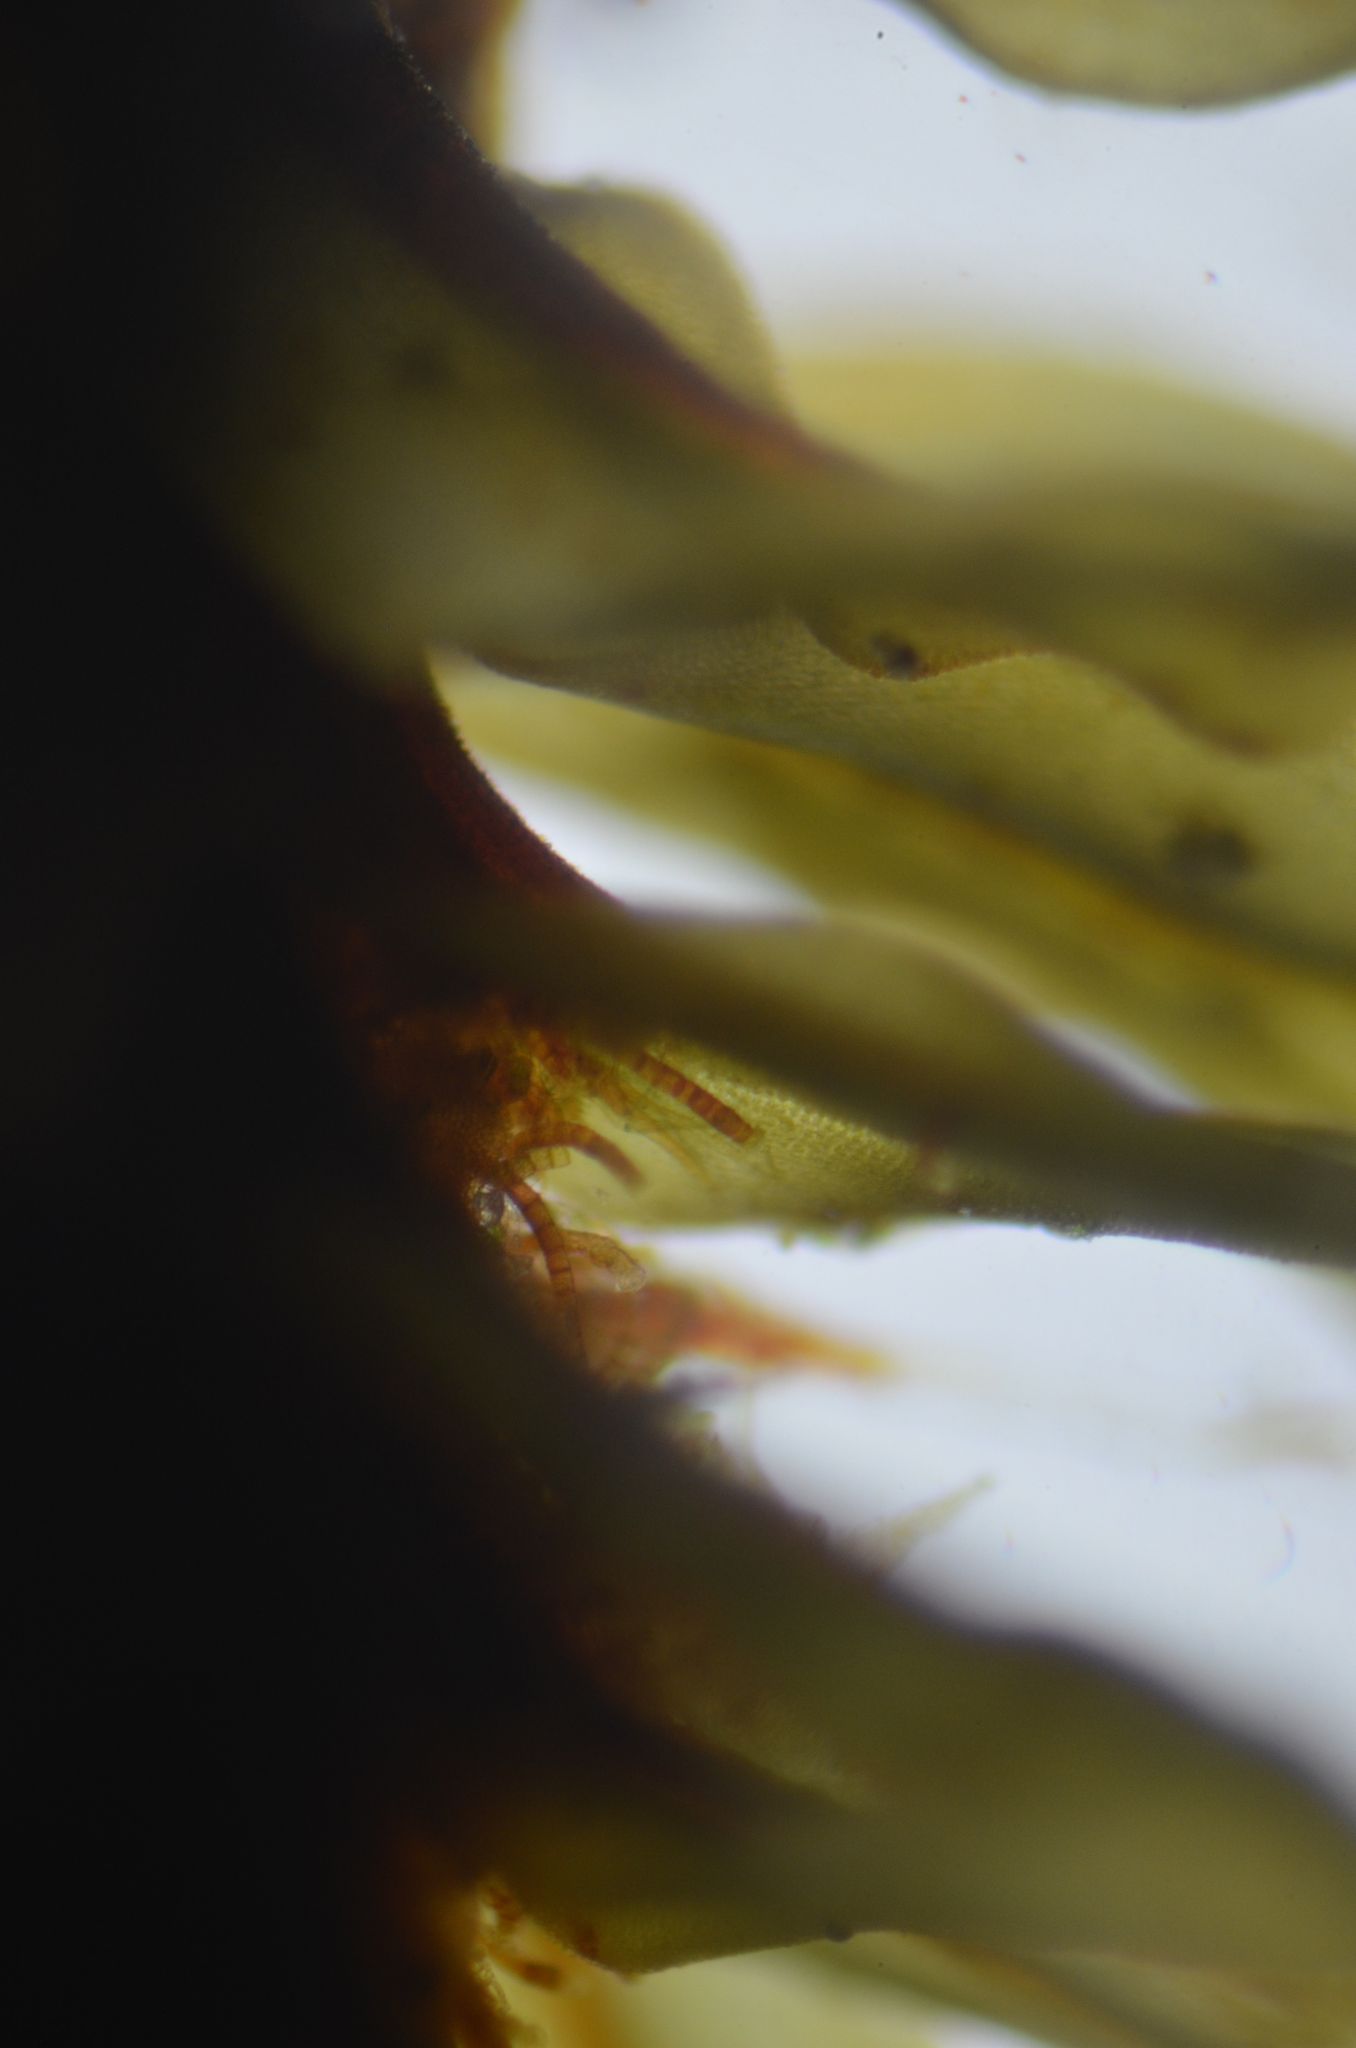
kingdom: Plantae
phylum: Bryophyta
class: Bryopsida
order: Encalyptales
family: Encalyptaceae
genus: Encalypta
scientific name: Encalypta procera
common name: Spiral extinguisher moss
